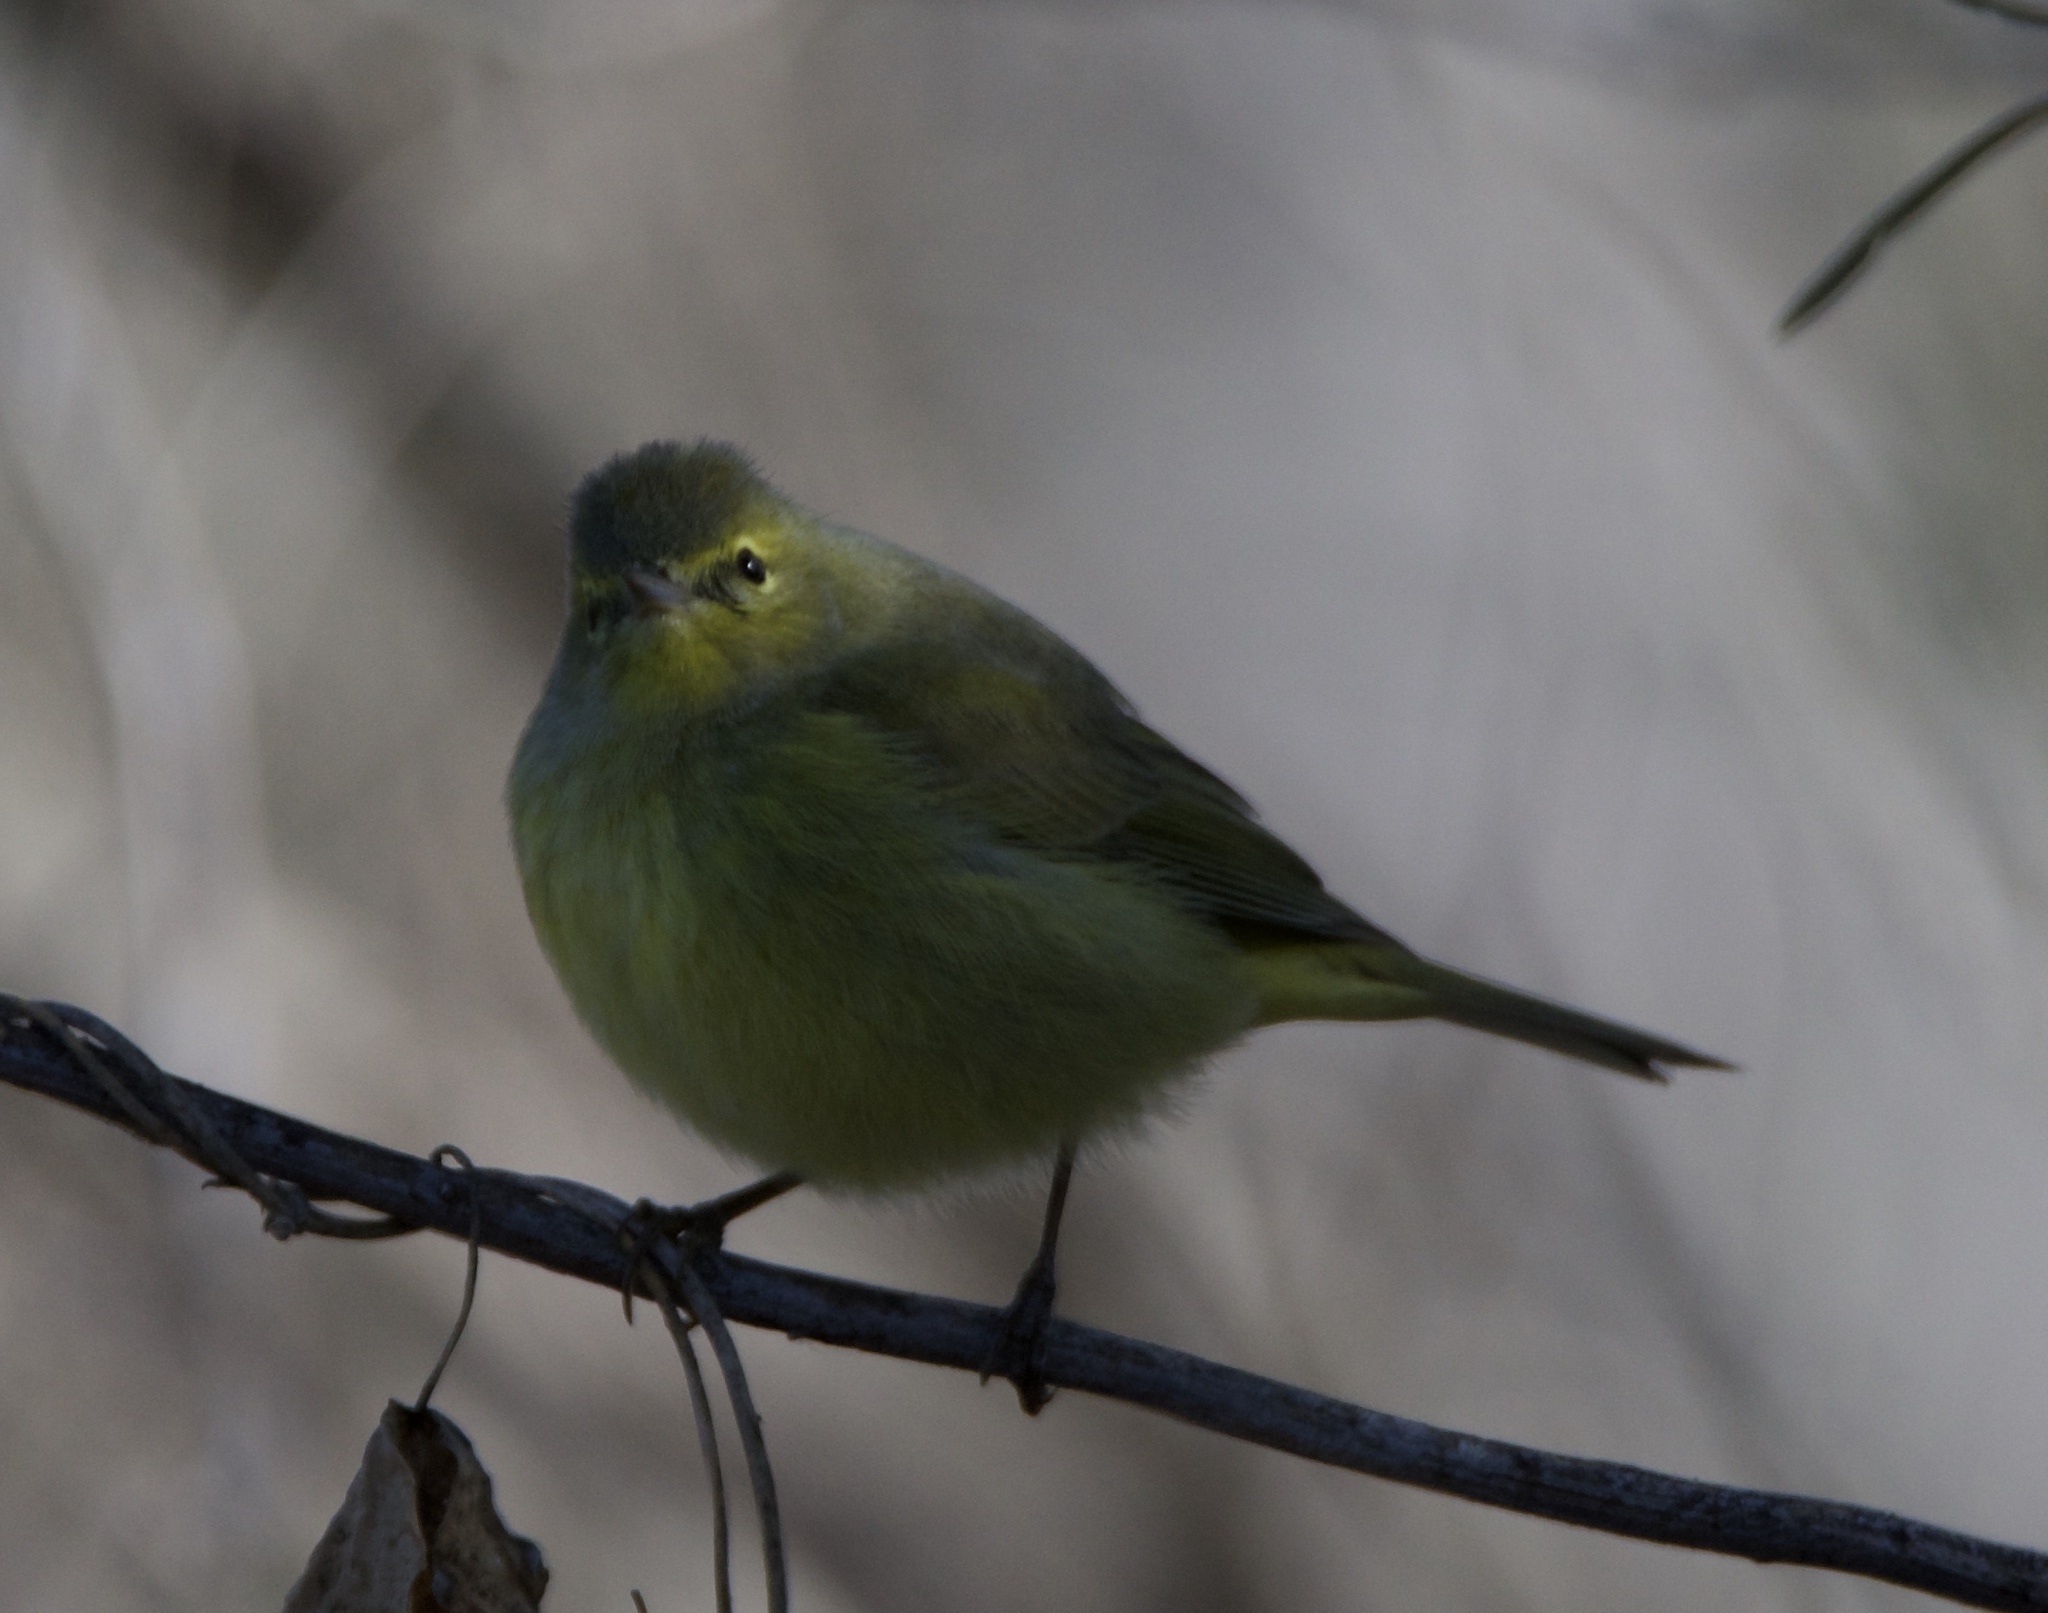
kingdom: Animalia
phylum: Chordata
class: Aves
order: Passeriformes
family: Parulidae
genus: Leiothlypis
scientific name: Leiothlypis celata
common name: Orange-crowned warbler
